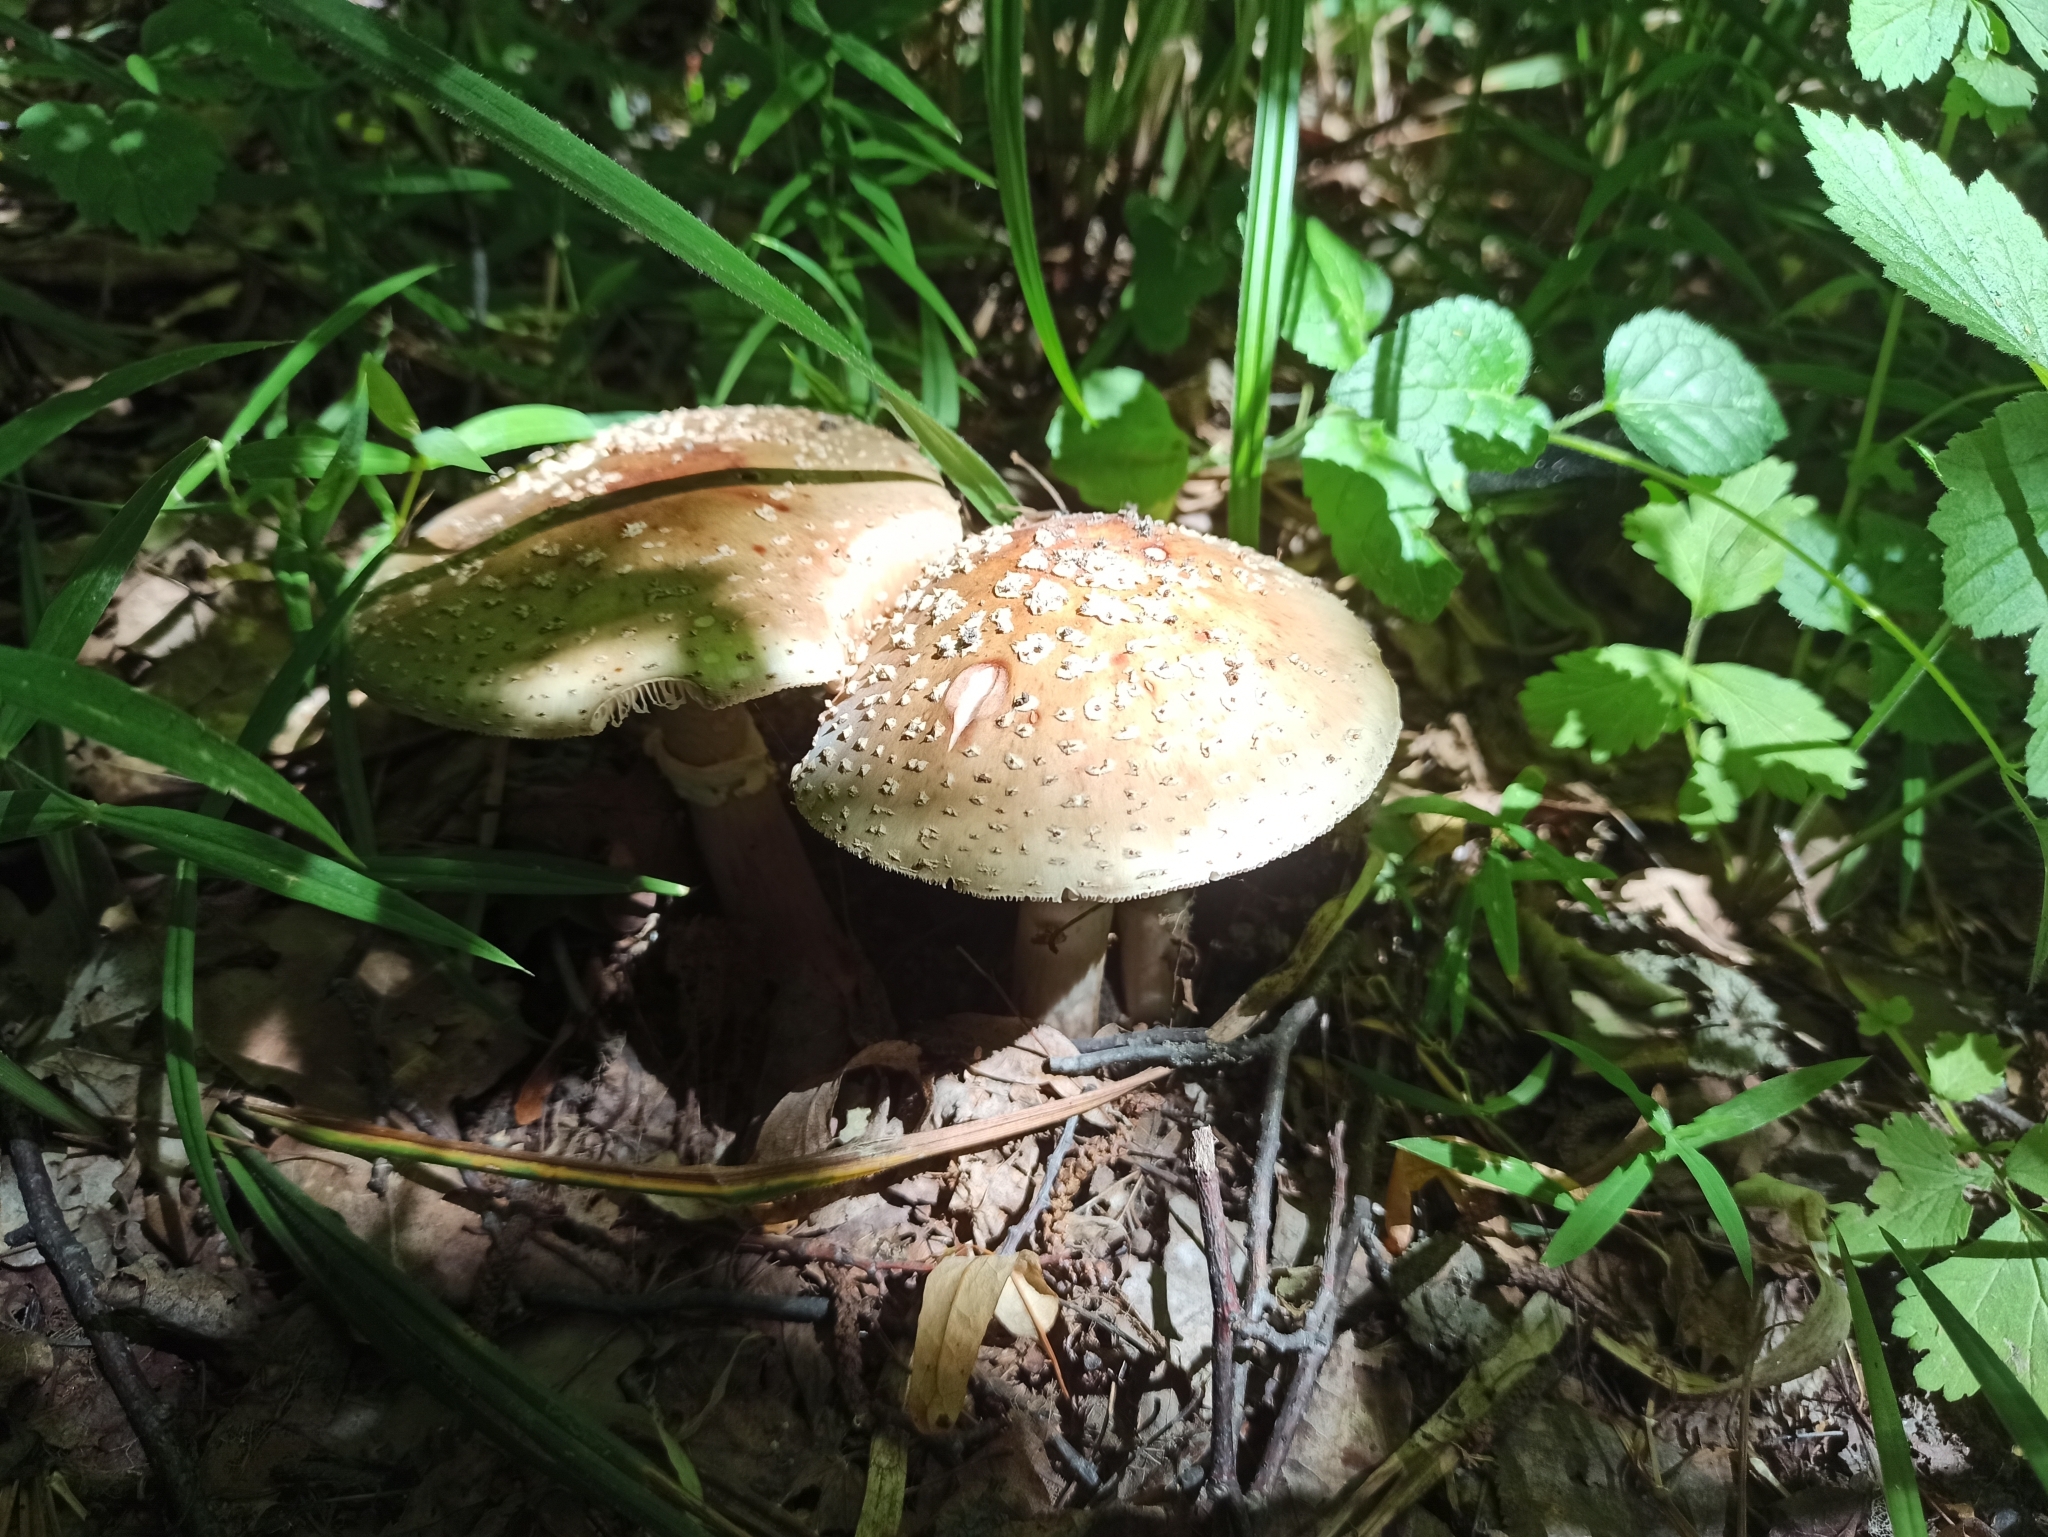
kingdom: Fungi
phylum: Basidiomycota
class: Agaricomycetes
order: Agaricales
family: Amanitaceae
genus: Amanita
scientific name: Amanita rubescens
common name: Blusher
